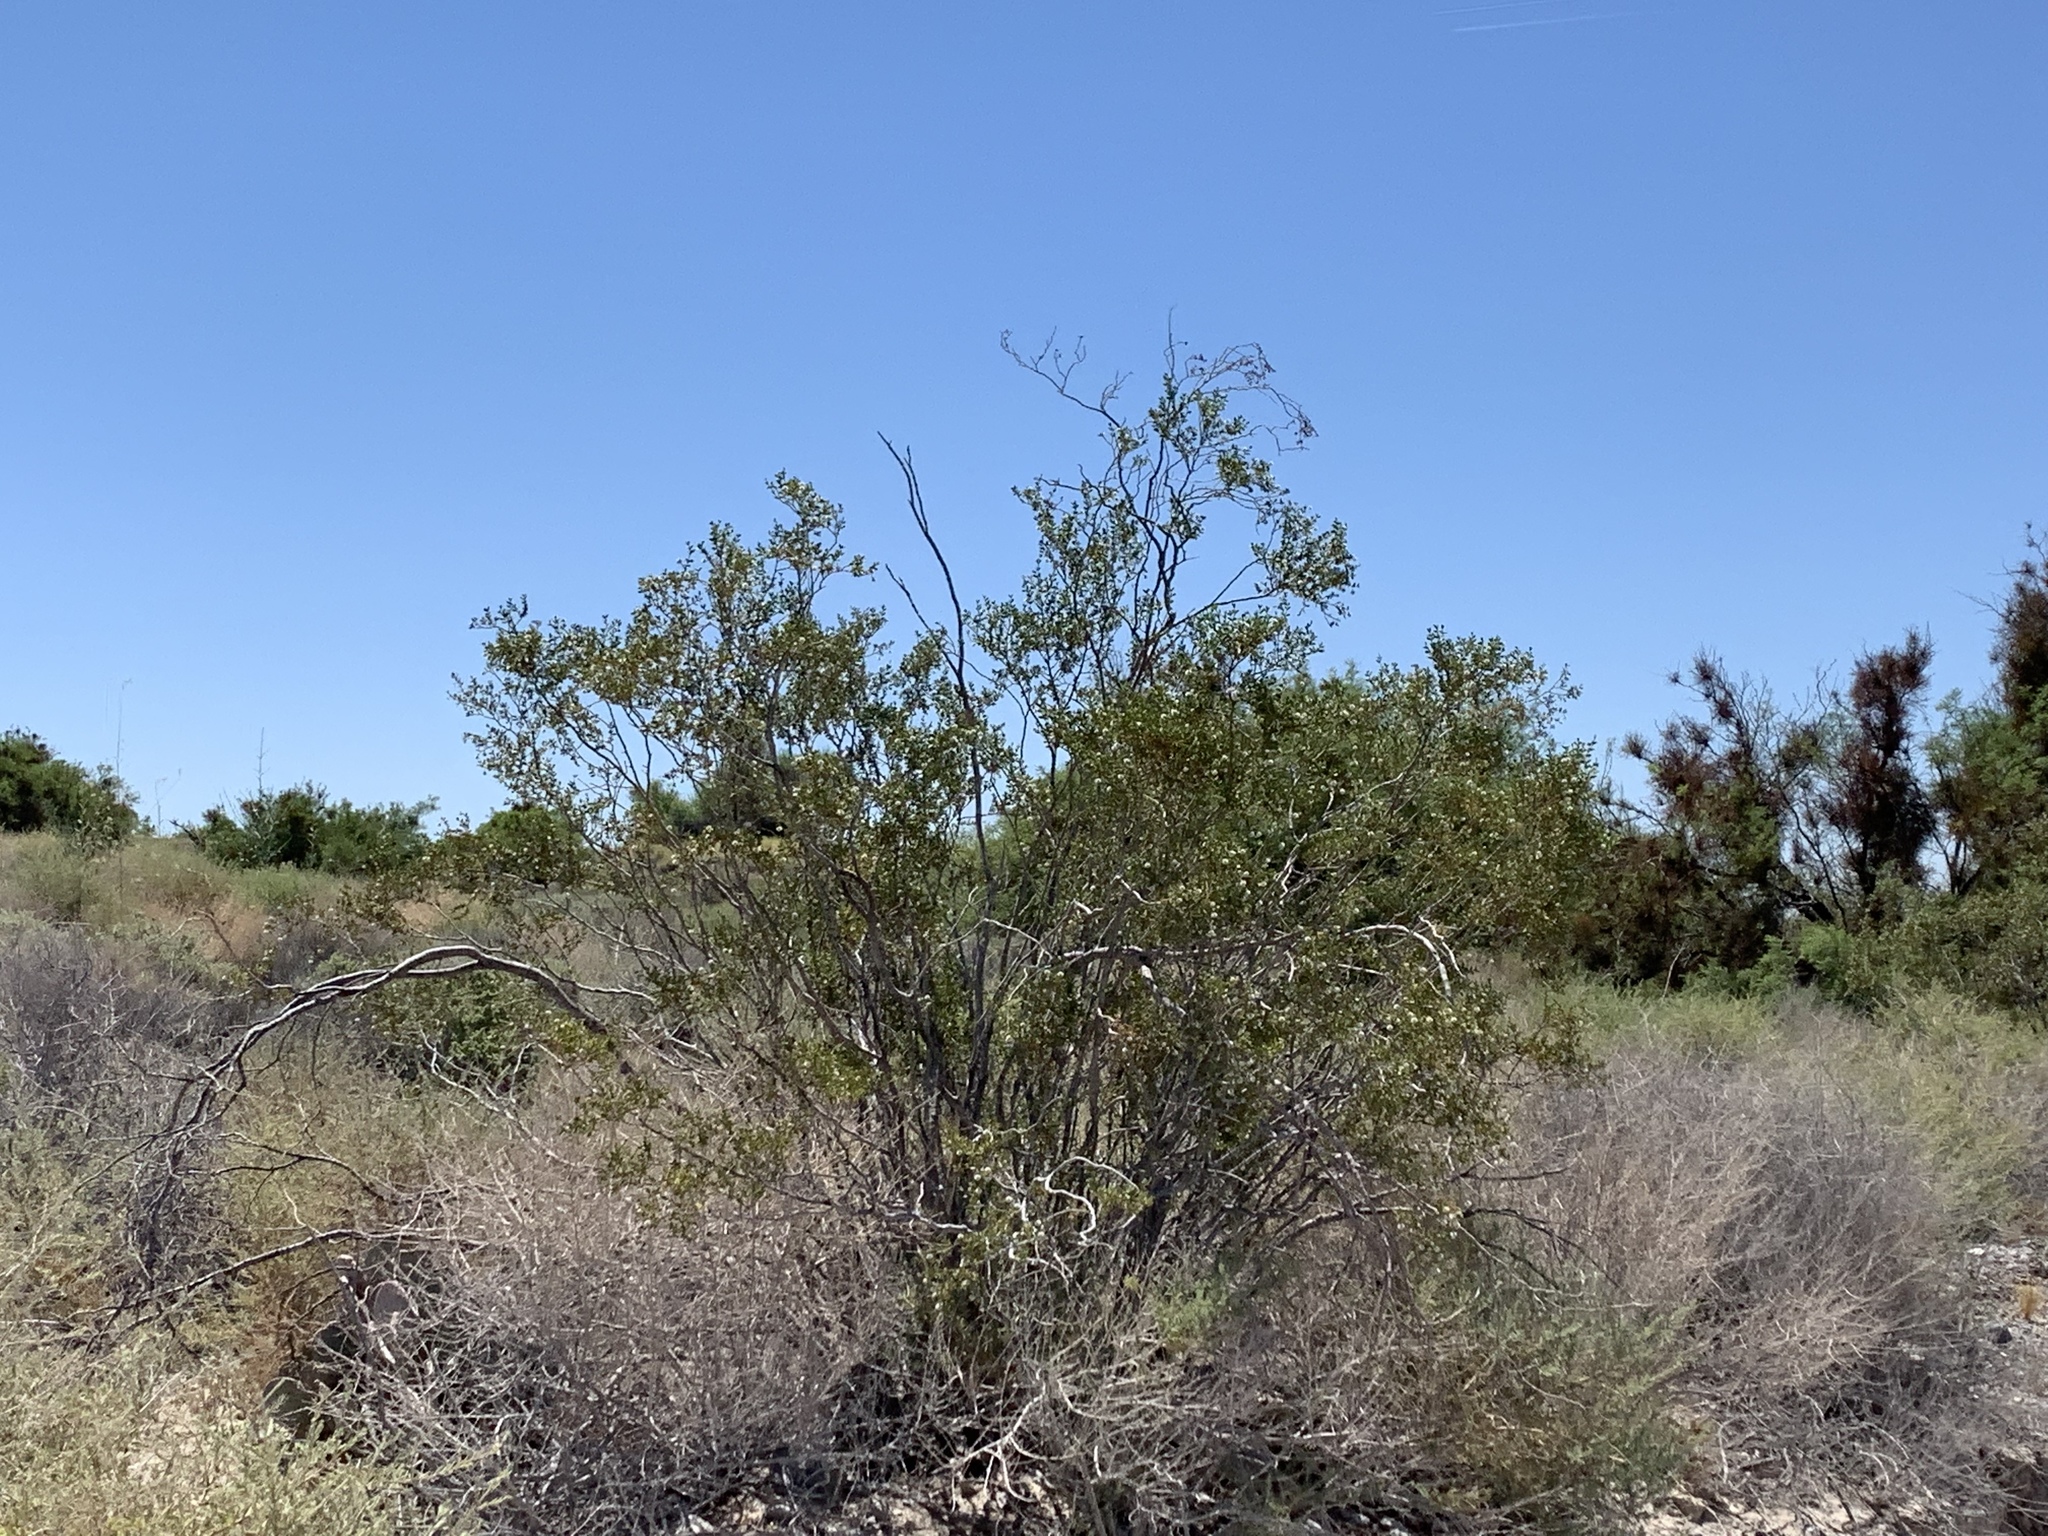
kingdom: Plantae
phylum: Tracheophyta
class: Magnoliopsida
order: Zygophyllales
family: Zygophyllaceae
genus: Larrea
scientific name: Larrea tridentata
